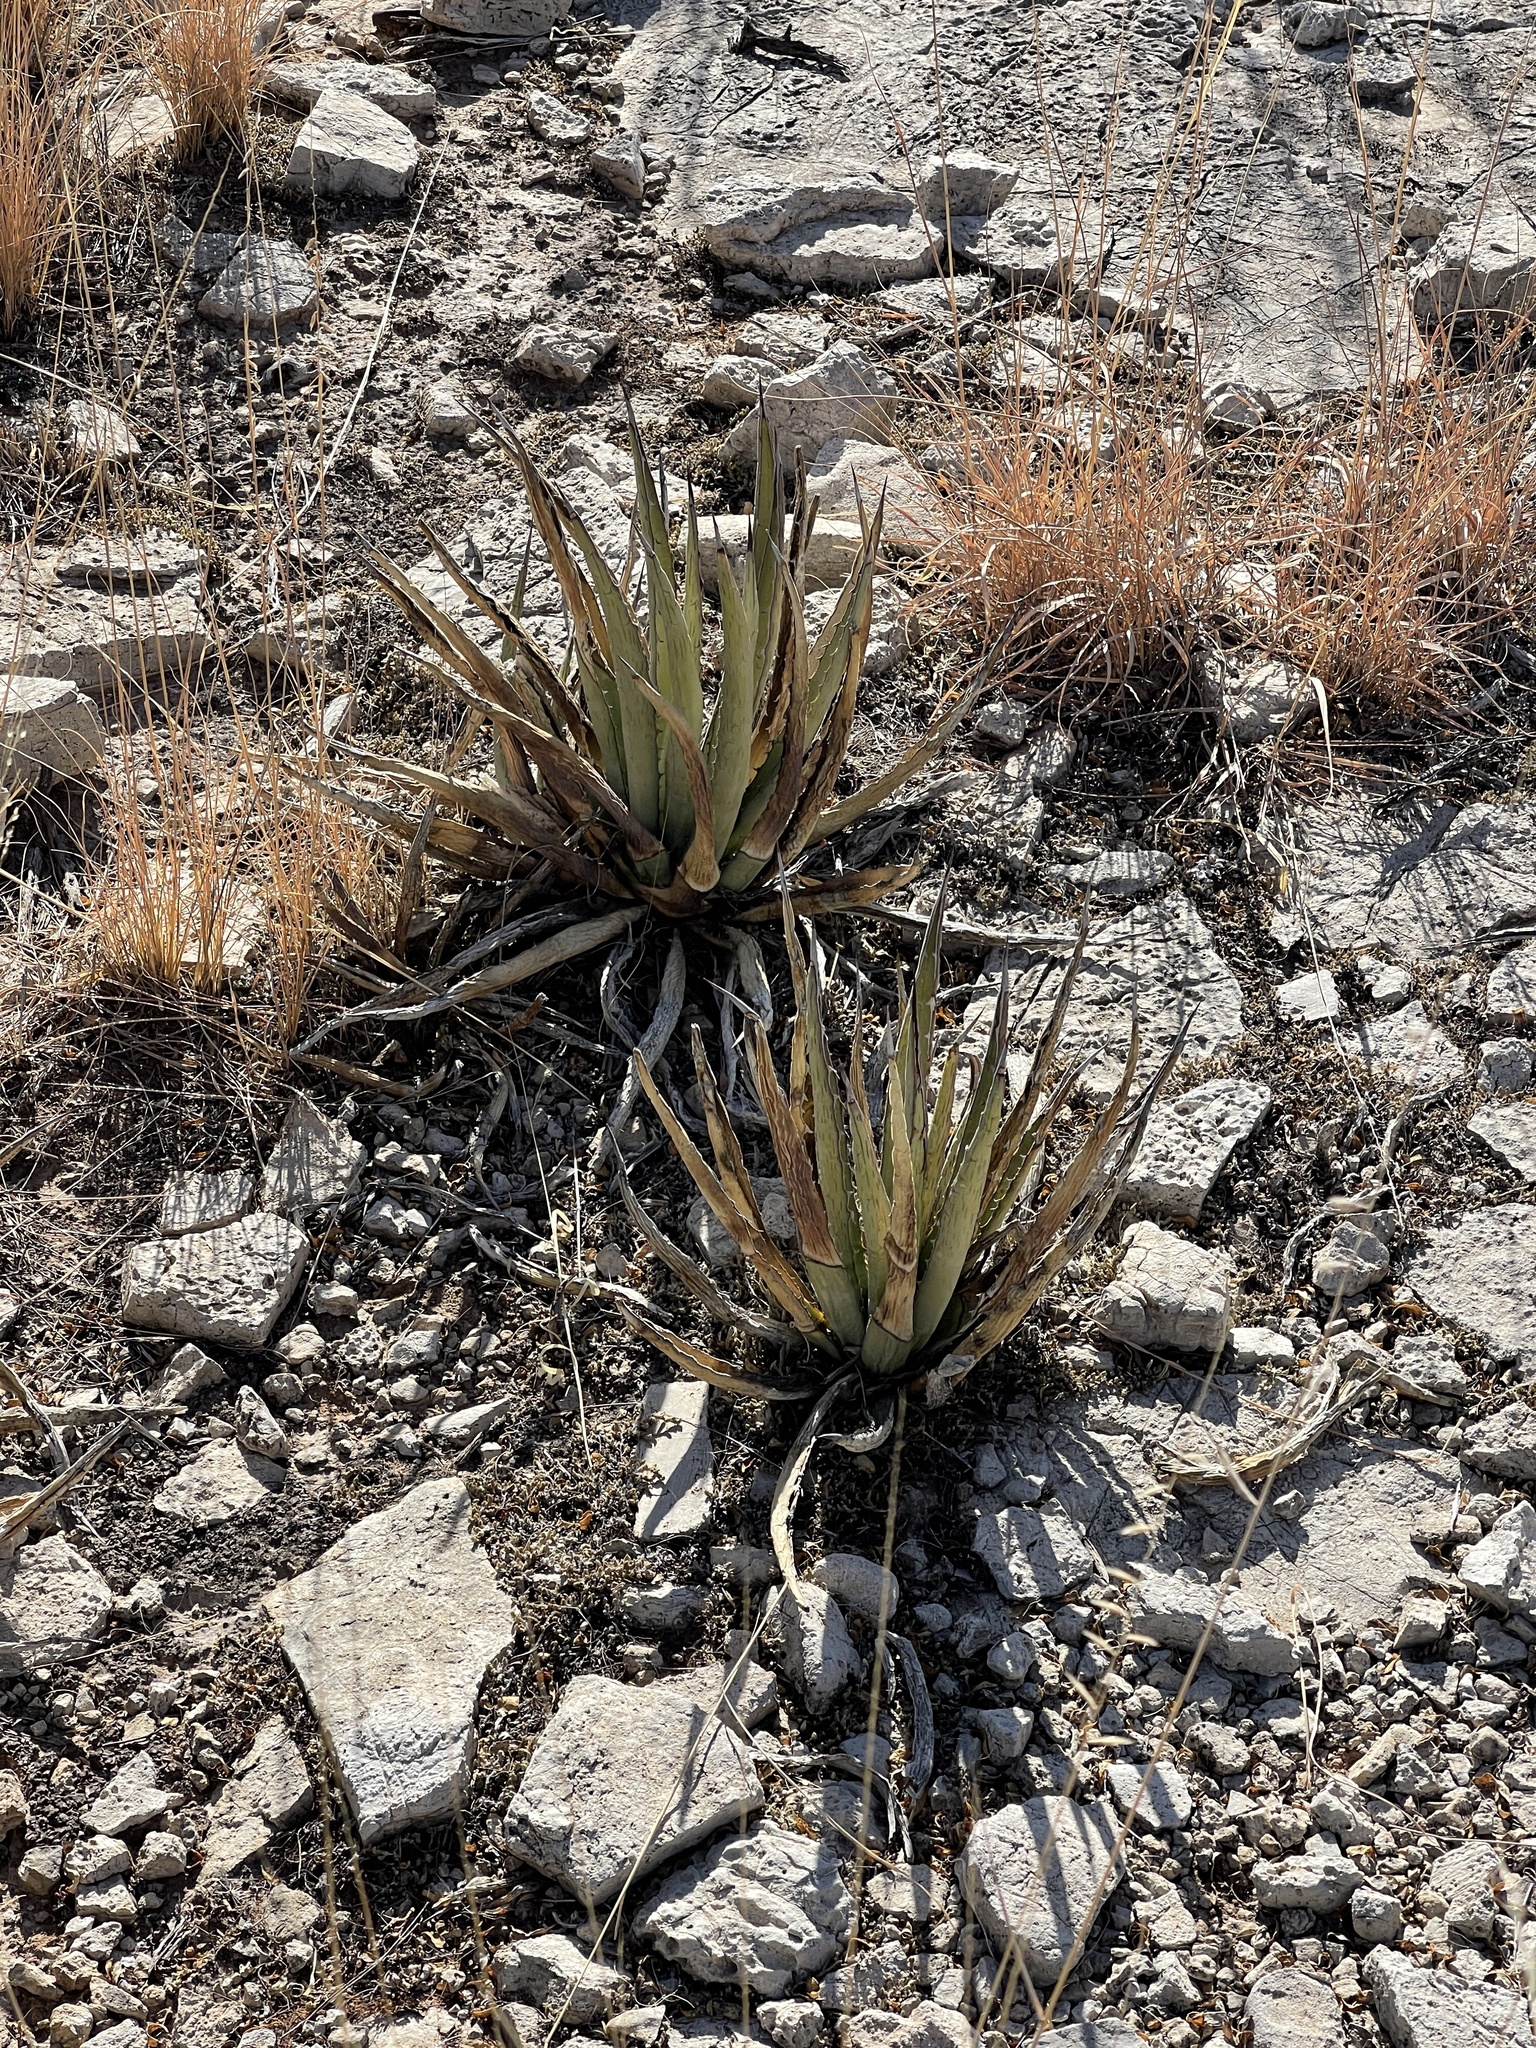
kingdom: Plantae
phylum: Tracheophyta
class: Liliopsida
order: Asparagales
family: Asparagaceae
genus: Agave
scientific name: Agave lechuguilla
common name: Lecheguilla agave
